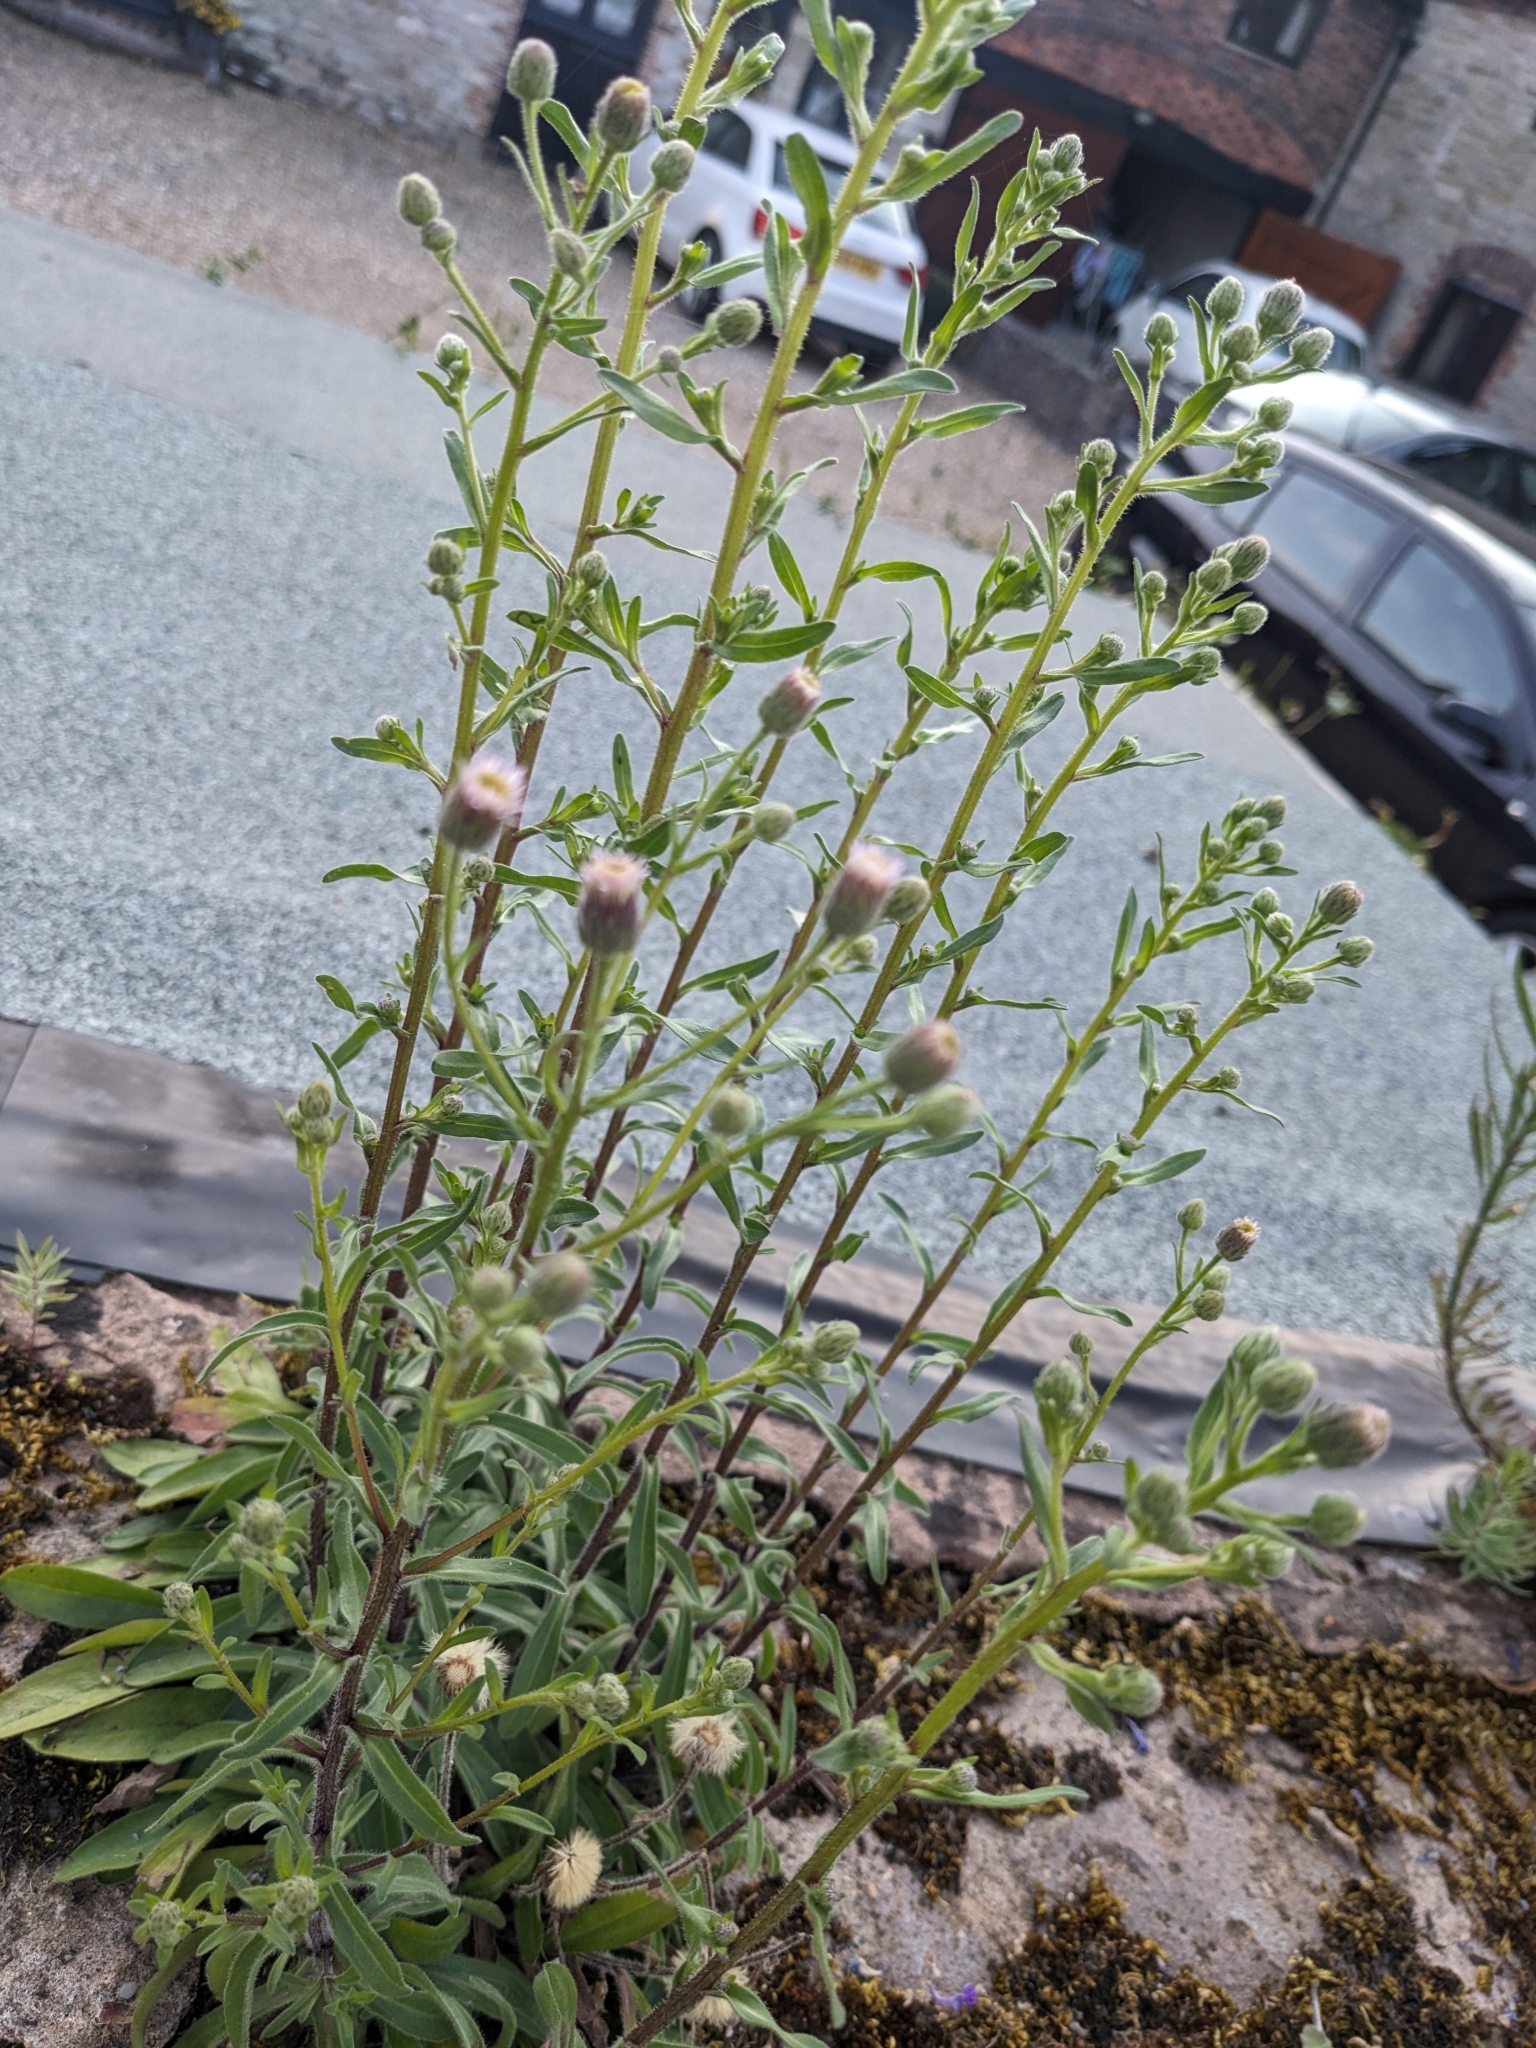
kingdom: Plantae
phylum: Tracheophyta
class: Magnoliopsida
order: Asterales
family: Asteraceae
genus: Erigeron
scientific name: Erigeron acris
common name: Blue fleabane
